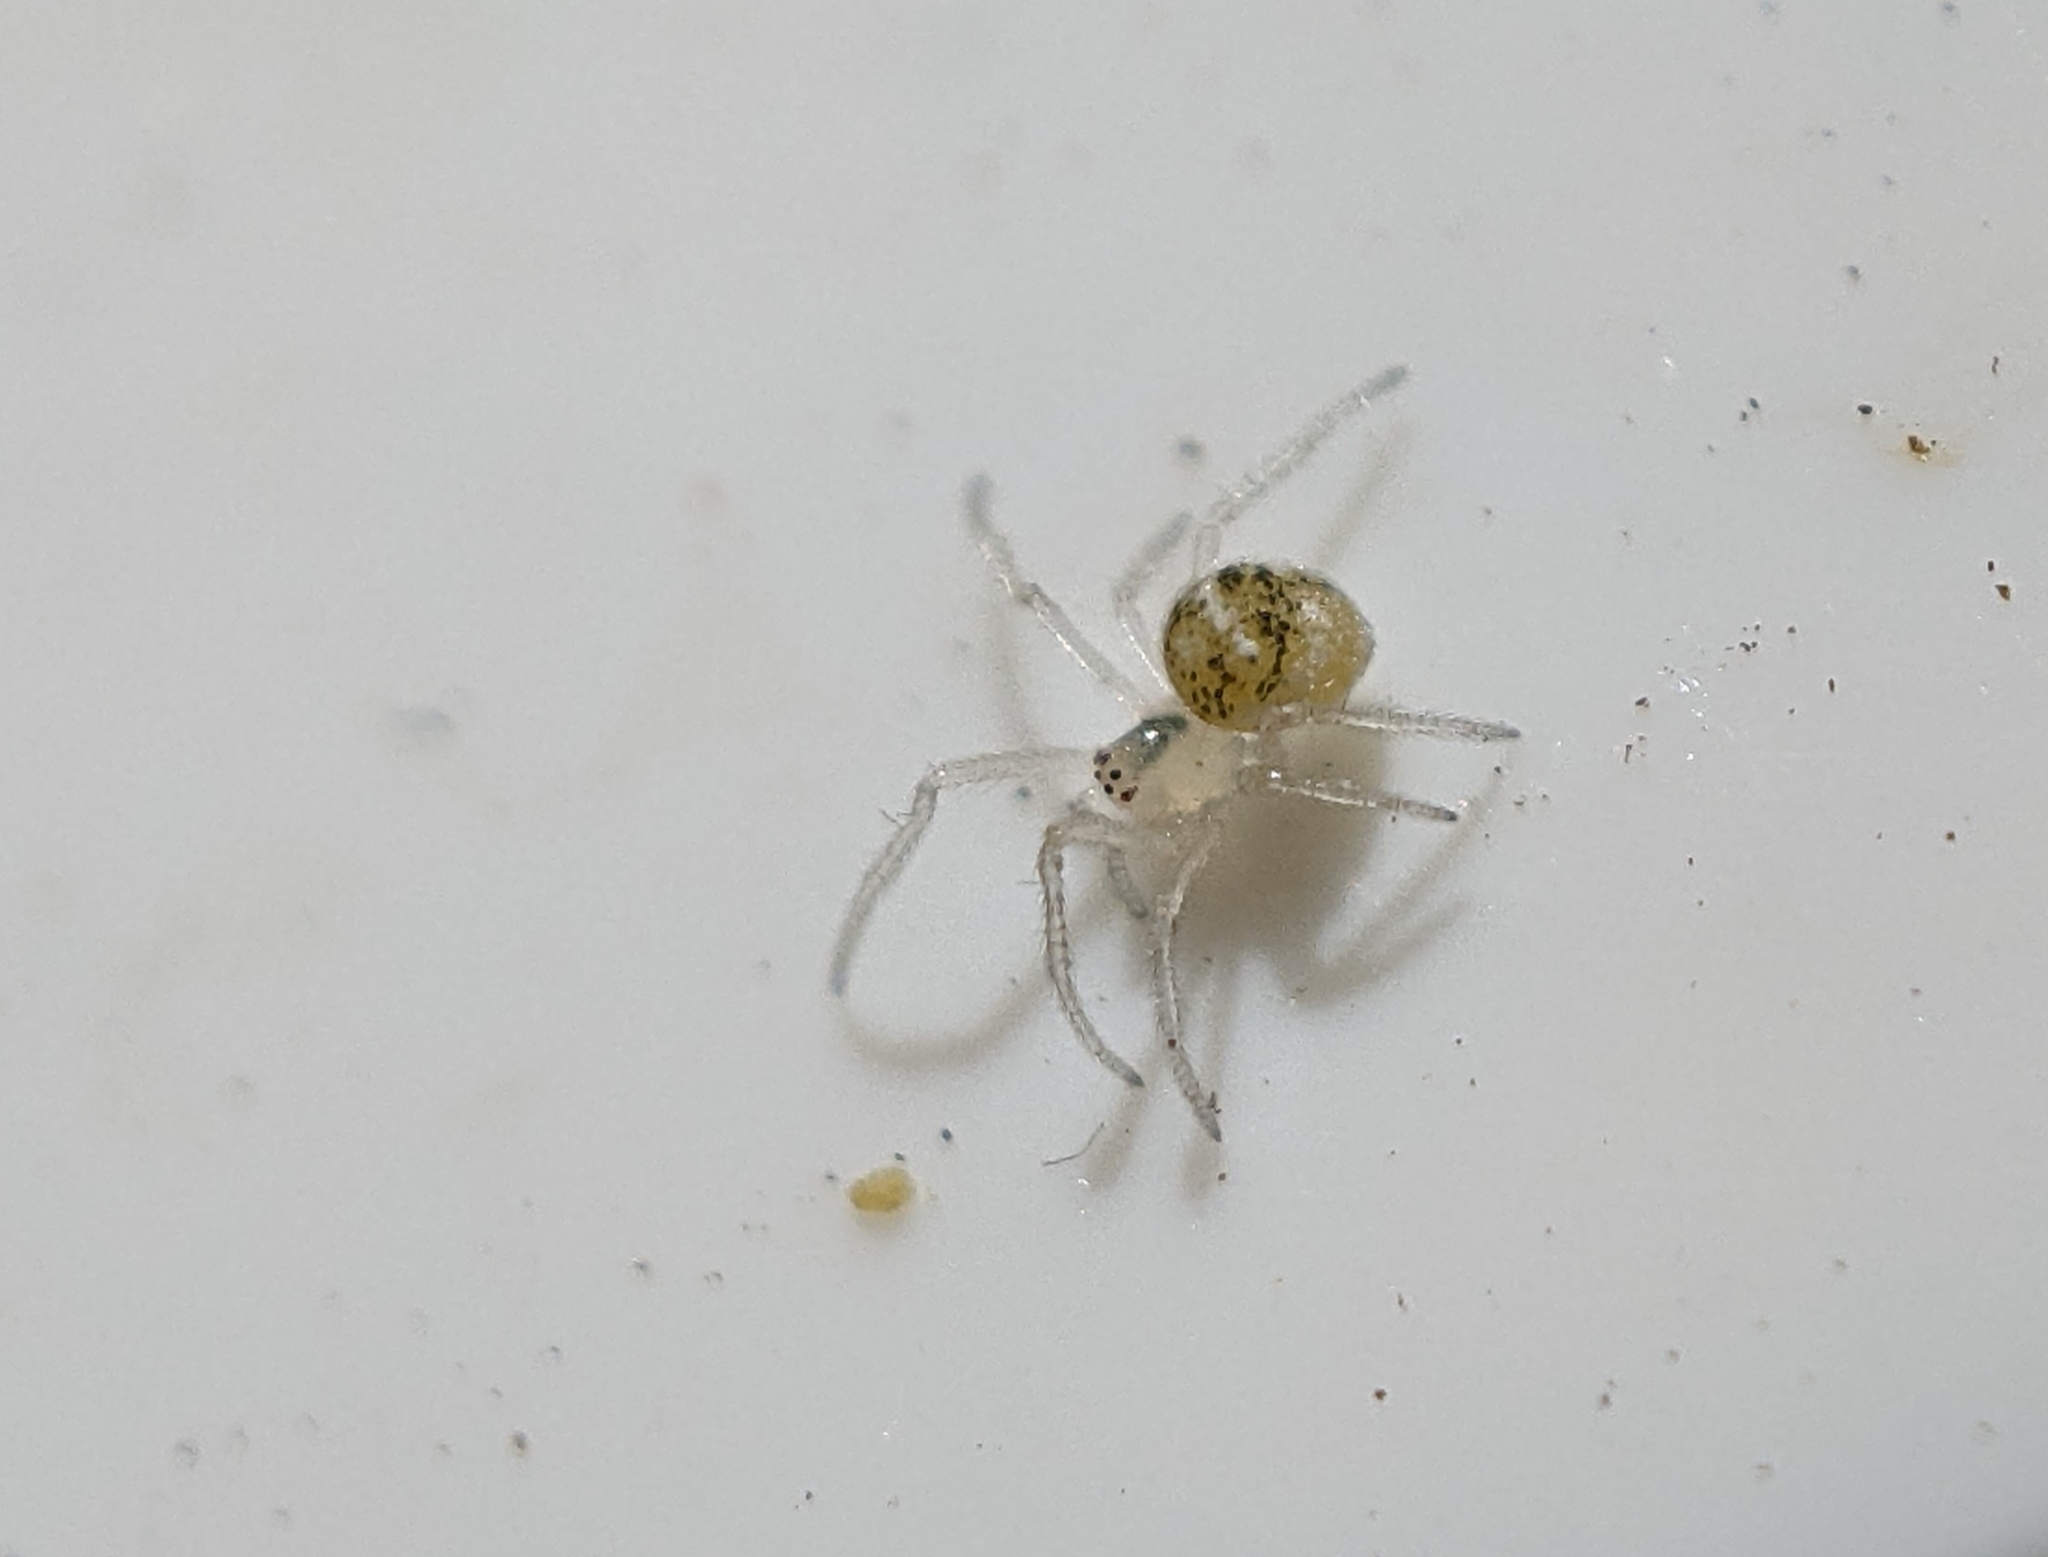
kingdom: Animalia
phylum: Arthropoda
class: Arachnida
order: Araneae
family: Theridiidae
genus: Paidiscura
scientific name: Paidiscura pallens
